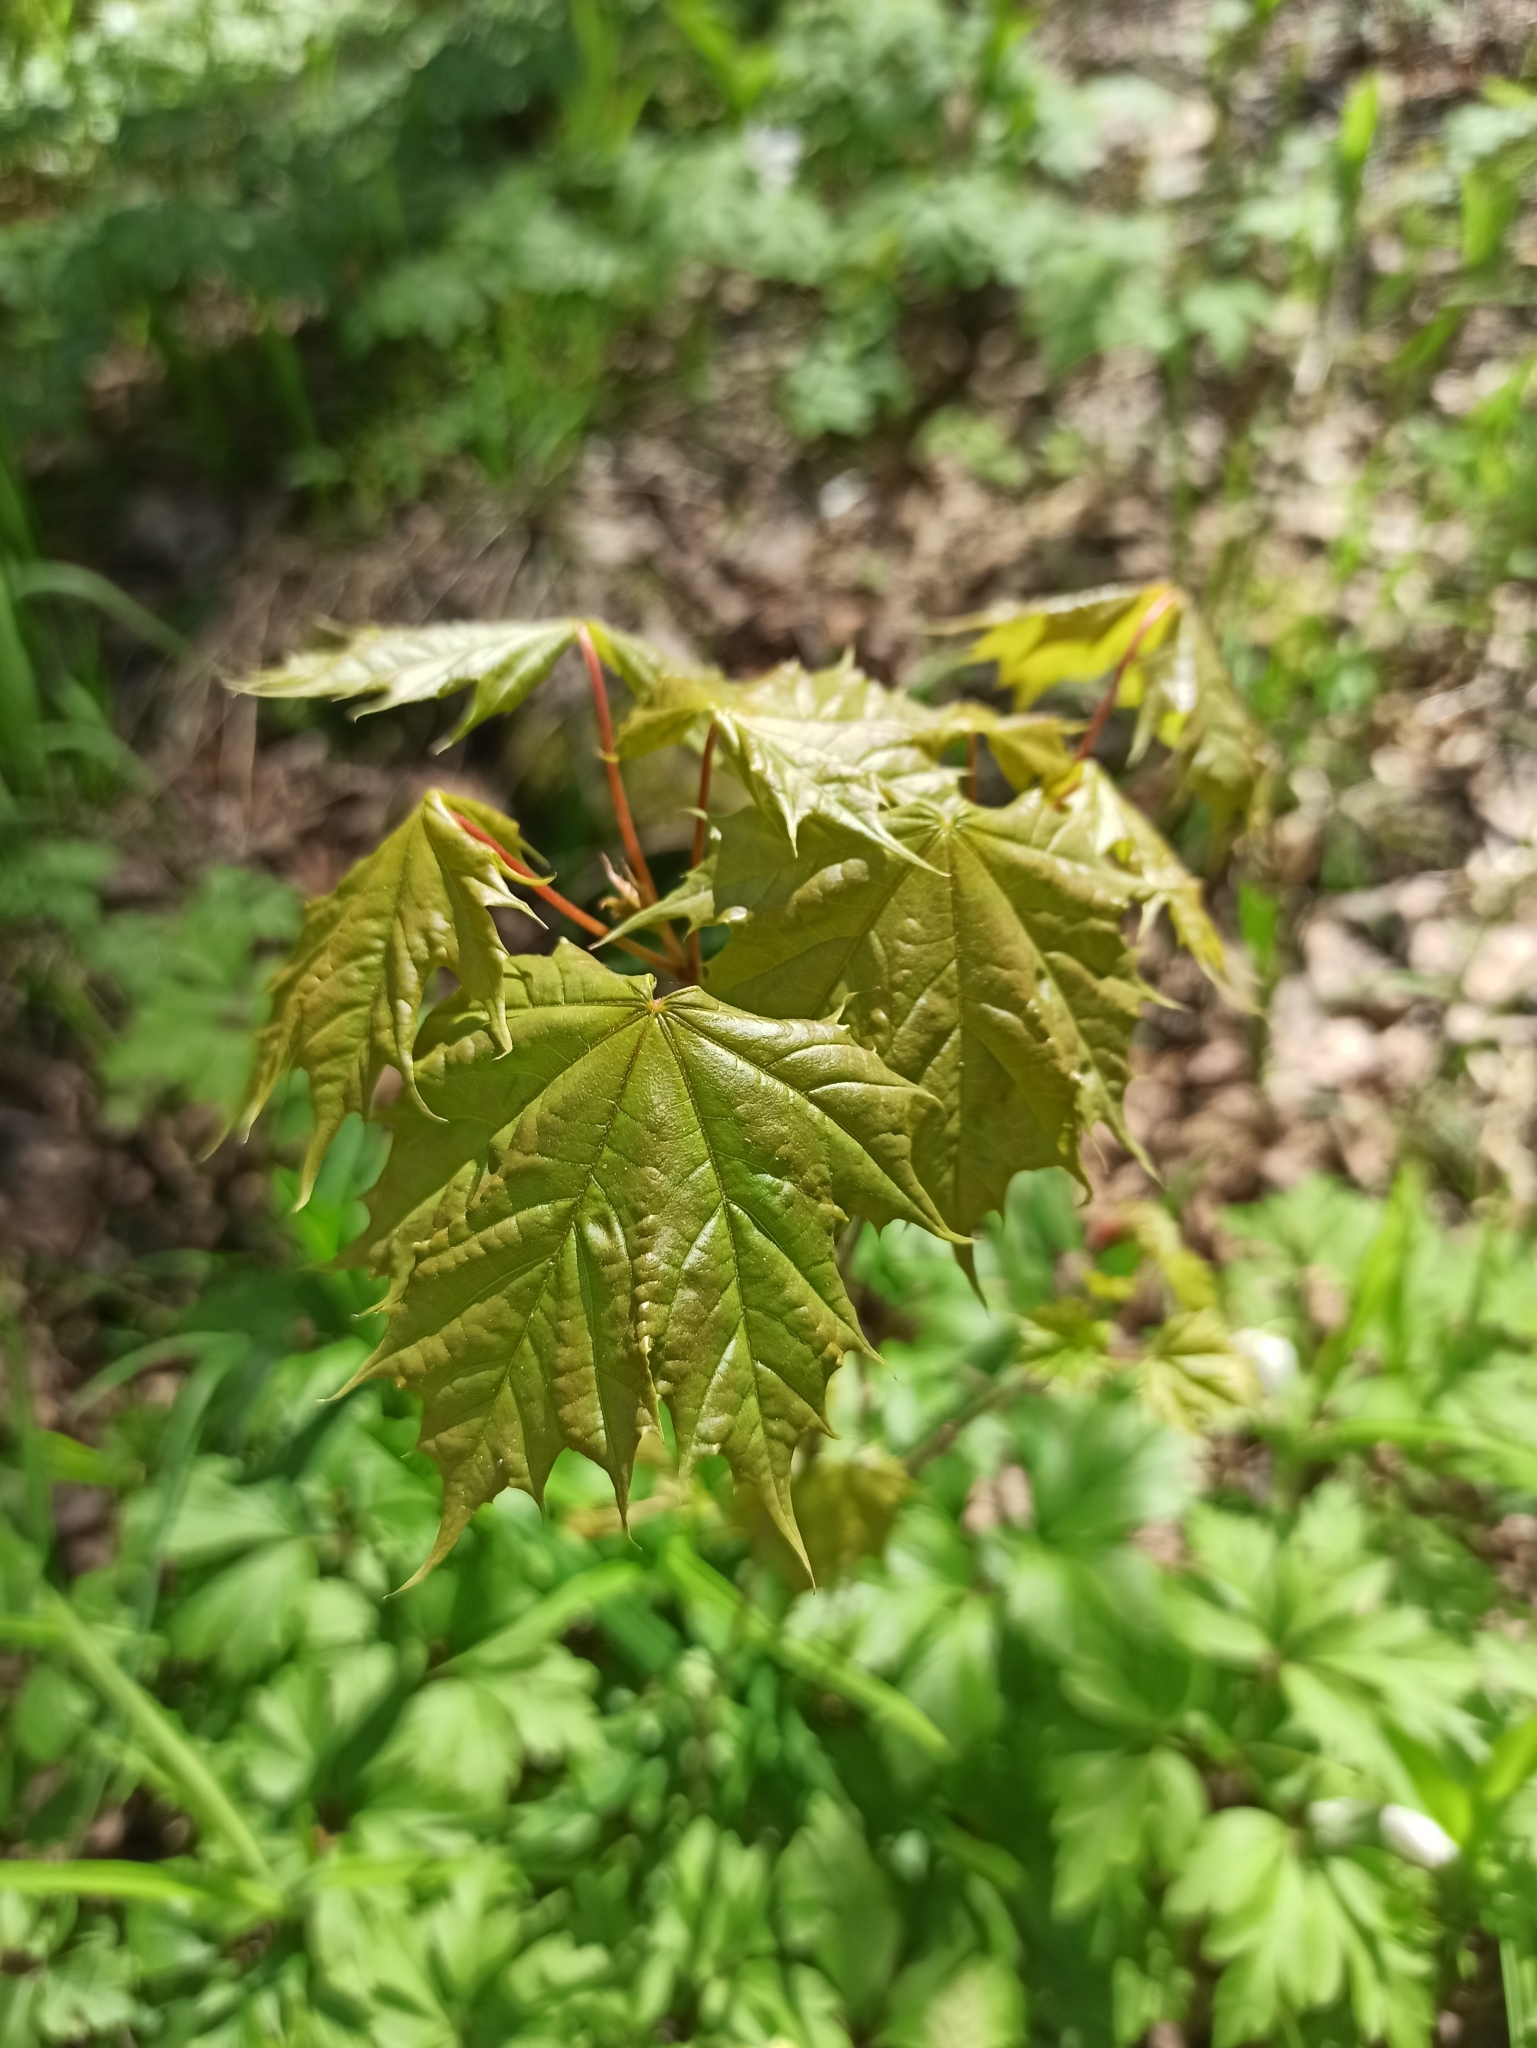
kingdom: Plantae
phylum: Tracheophyta
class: Magnoliopsida
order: Sapindales
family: Sapindaceae
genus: Acer
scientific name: Acer platanoides
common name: Norway maple
